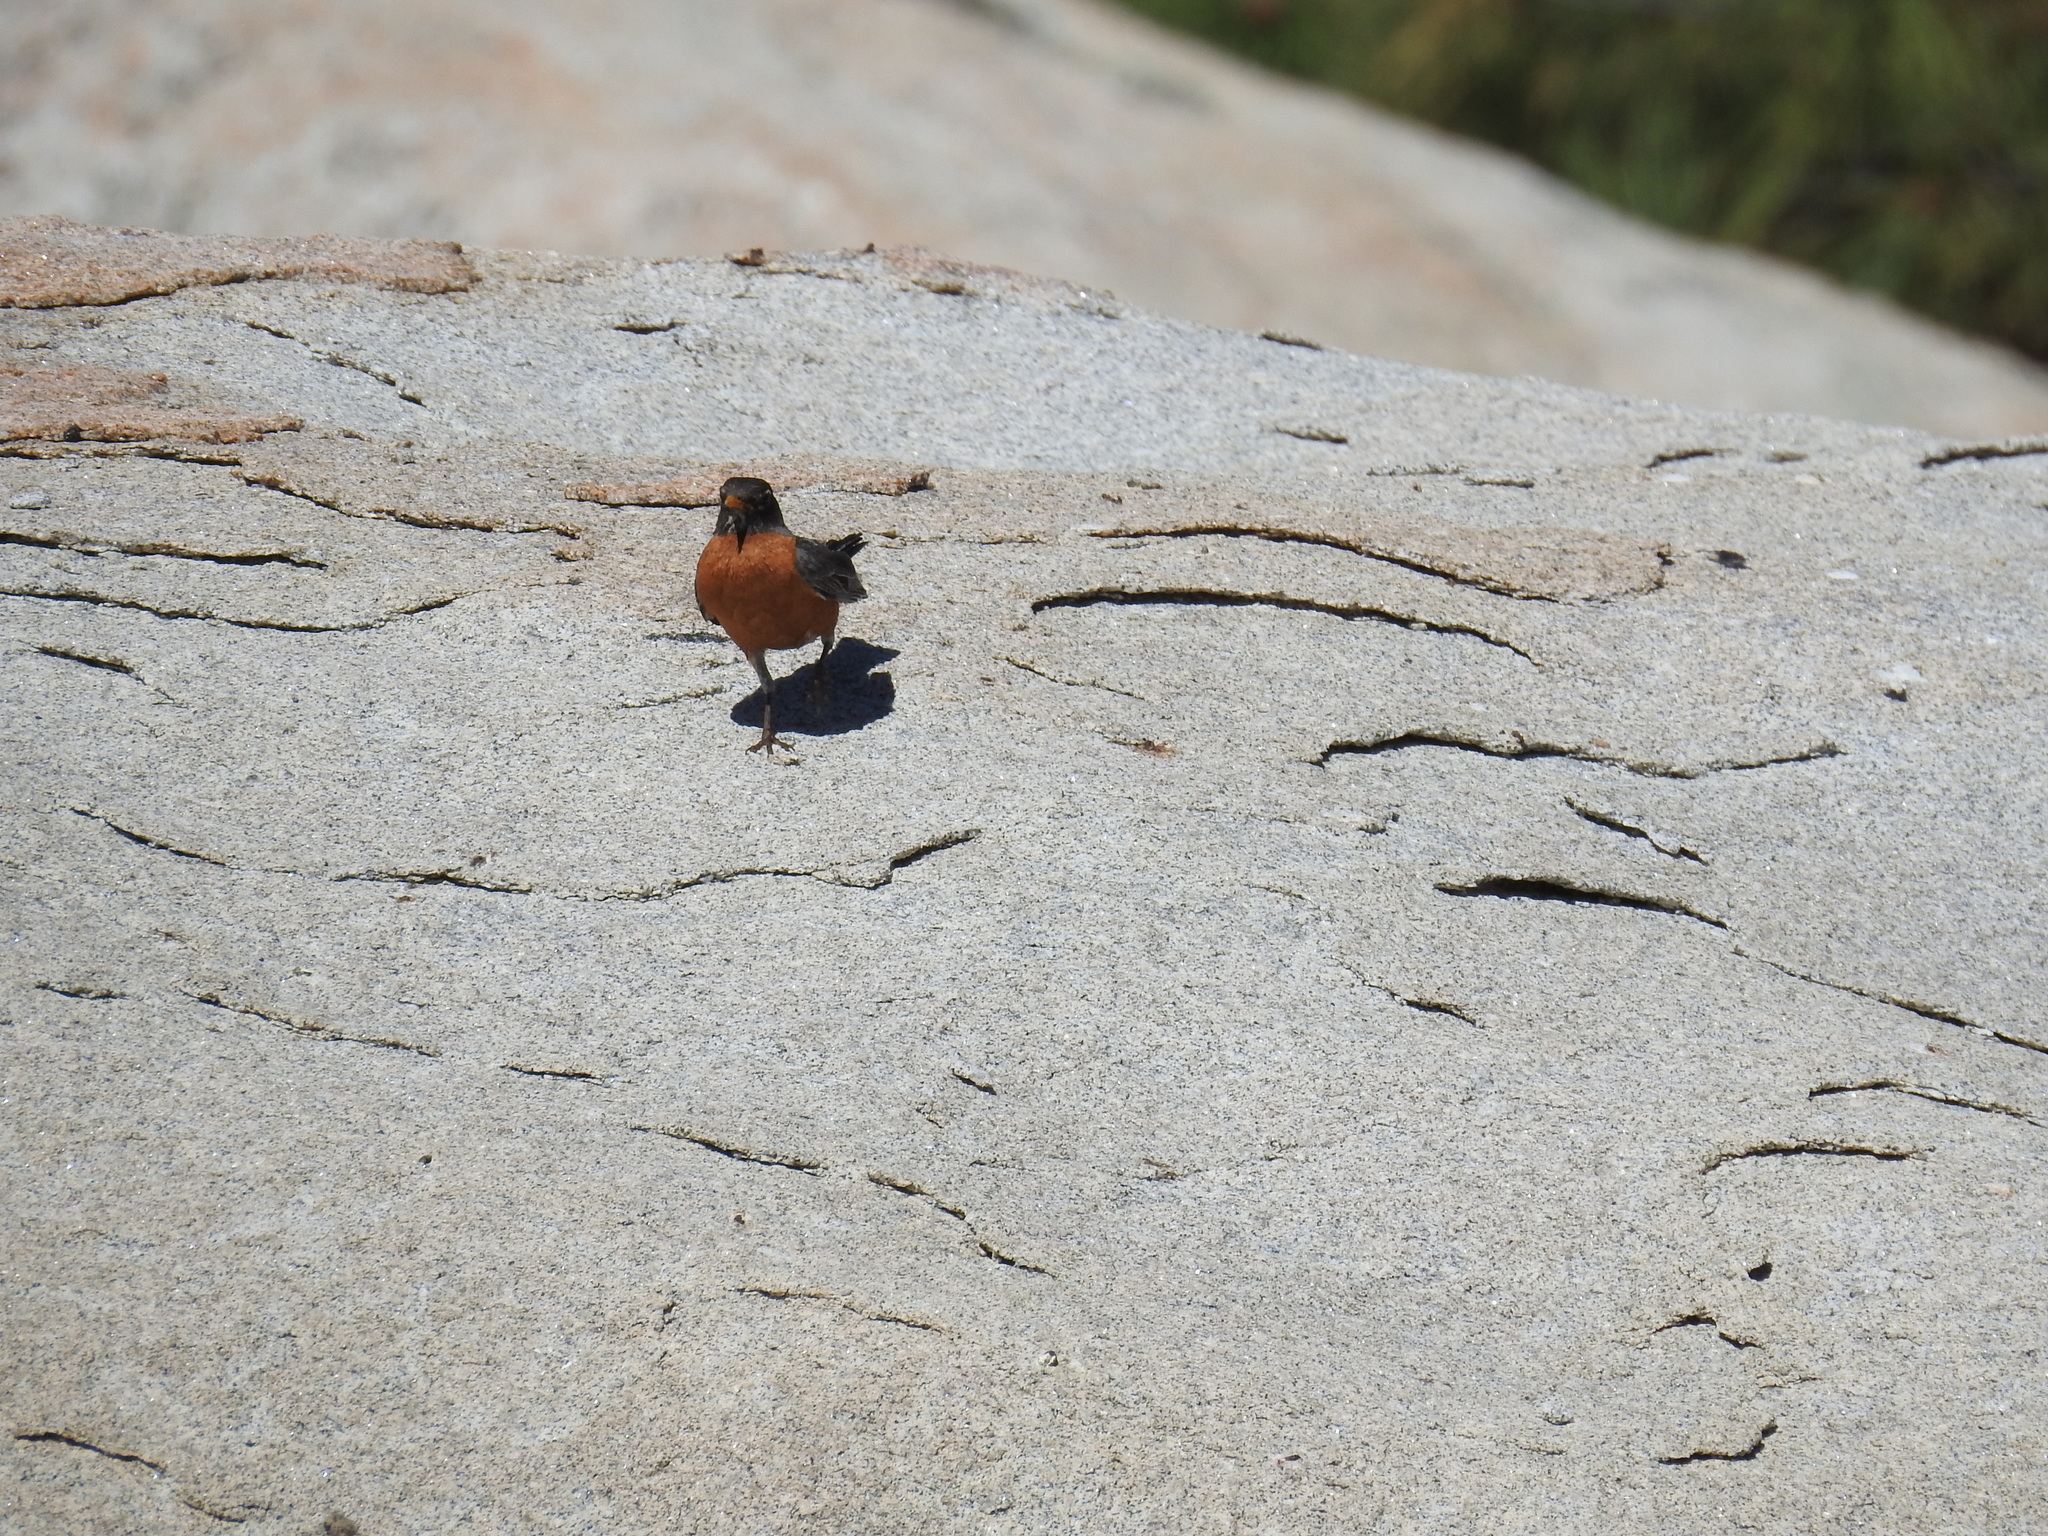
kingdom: Animalia
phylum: Chordata
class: Aves
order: Passeriformes
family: Turdidae
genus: Turdus
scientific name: Turdus migratorius
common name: American robin
